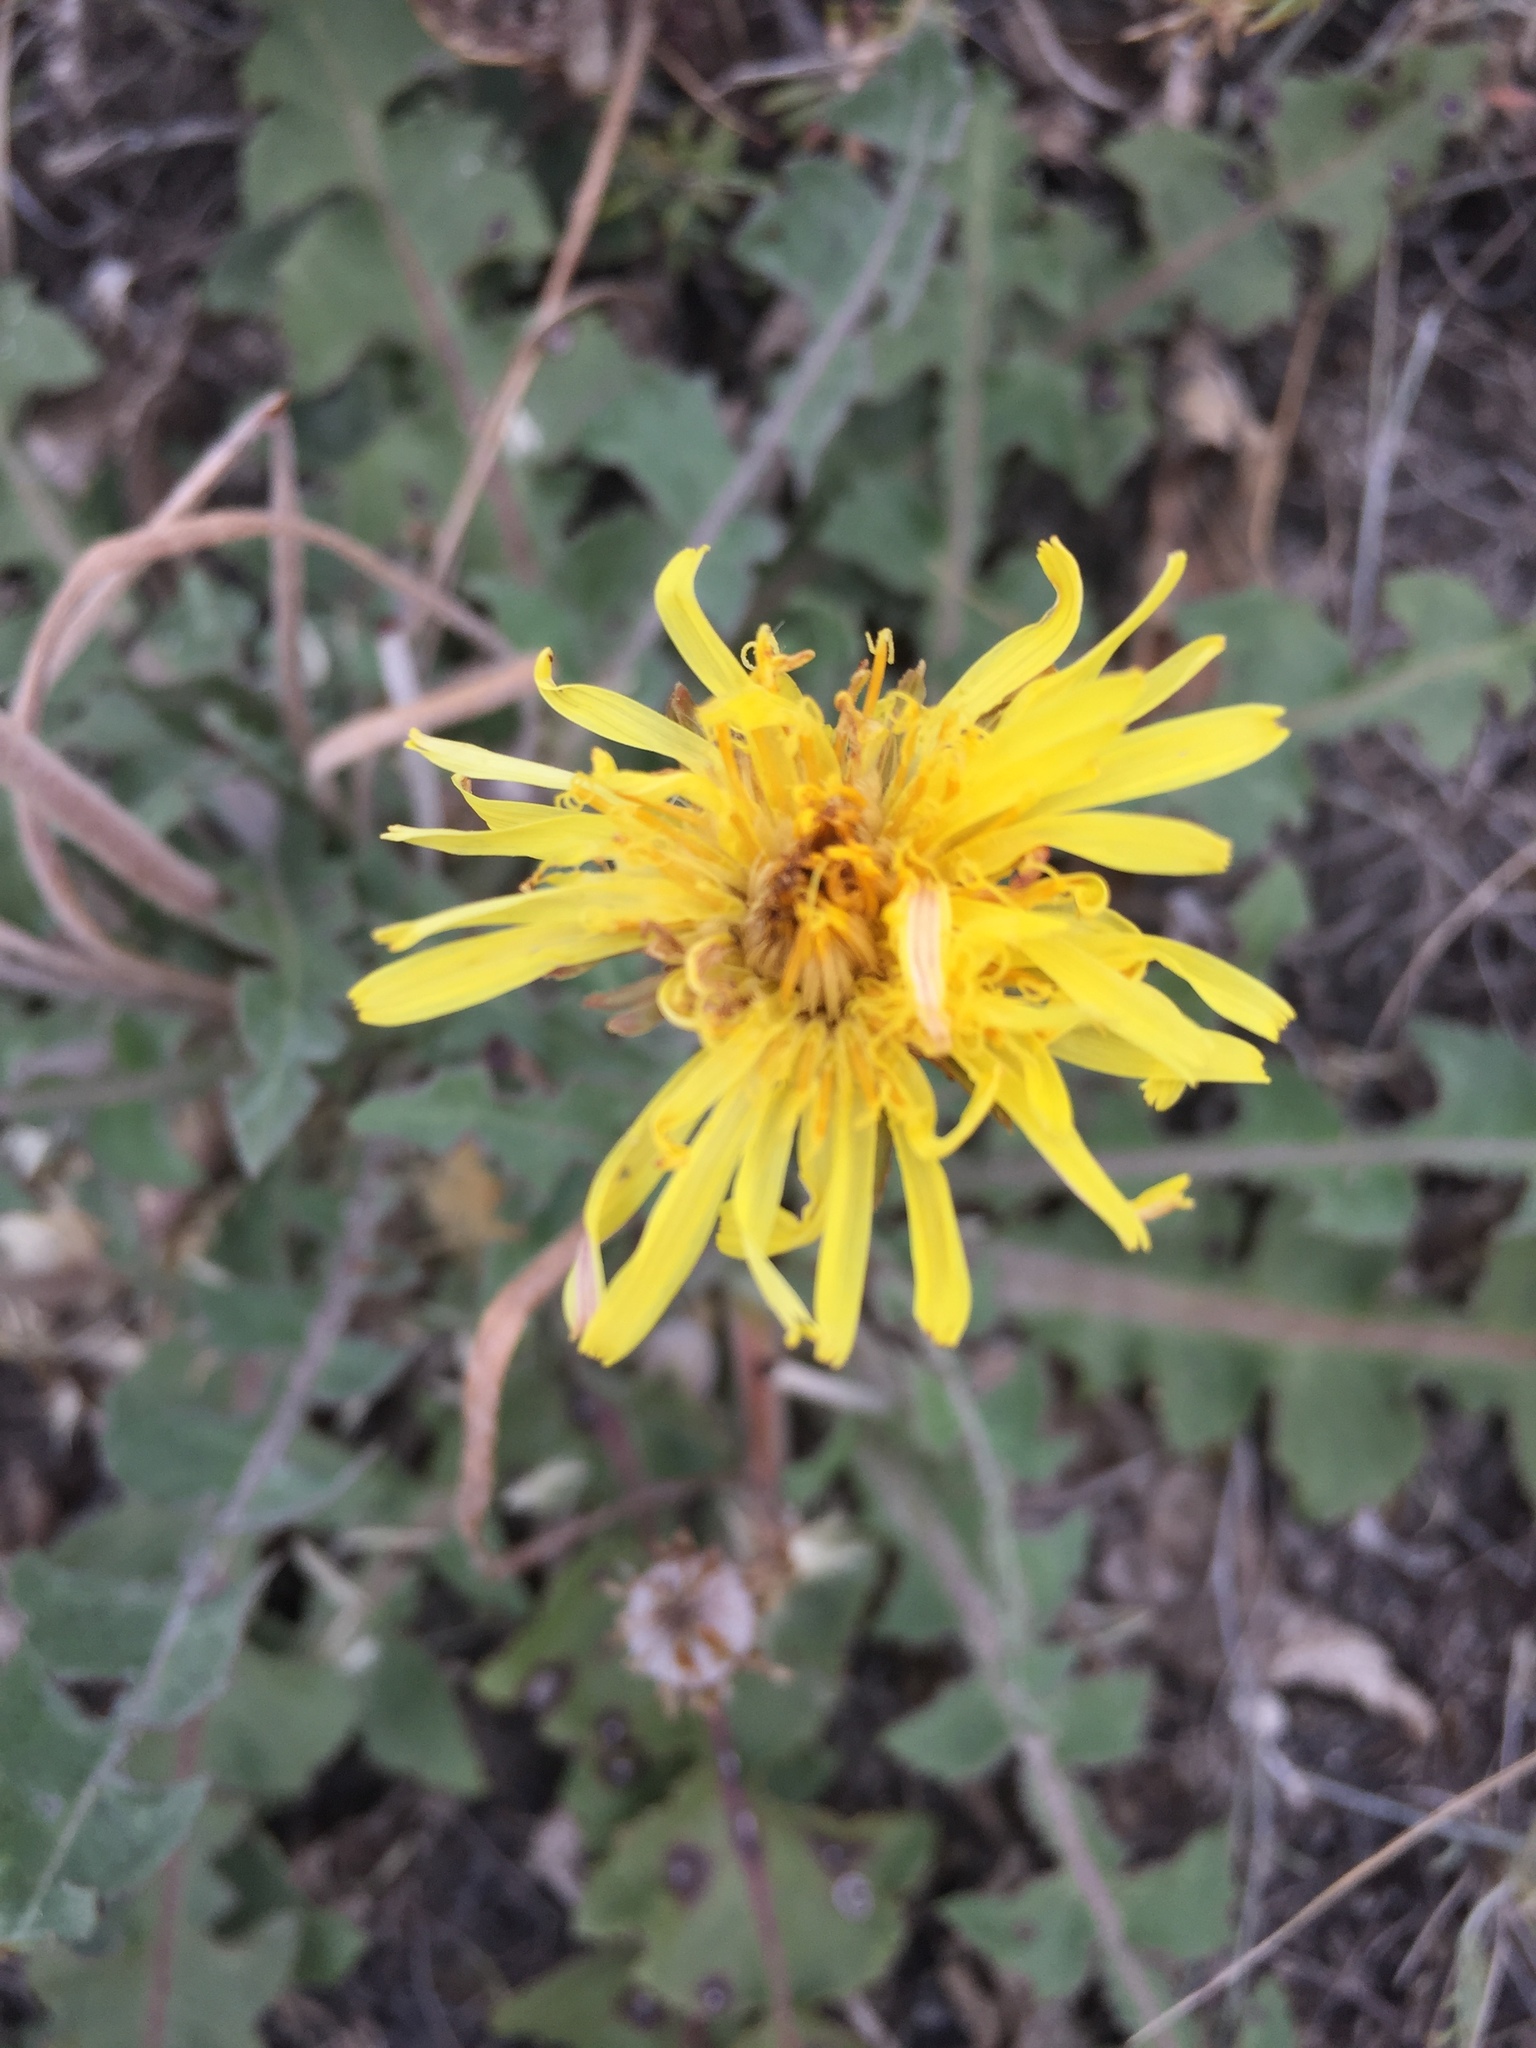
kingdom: Plantae
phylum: Tracheophyta
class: Magnoliopsida
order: Asterales
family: Asteraceae
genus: Taraxacum
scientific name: Taraxacum serotinum
